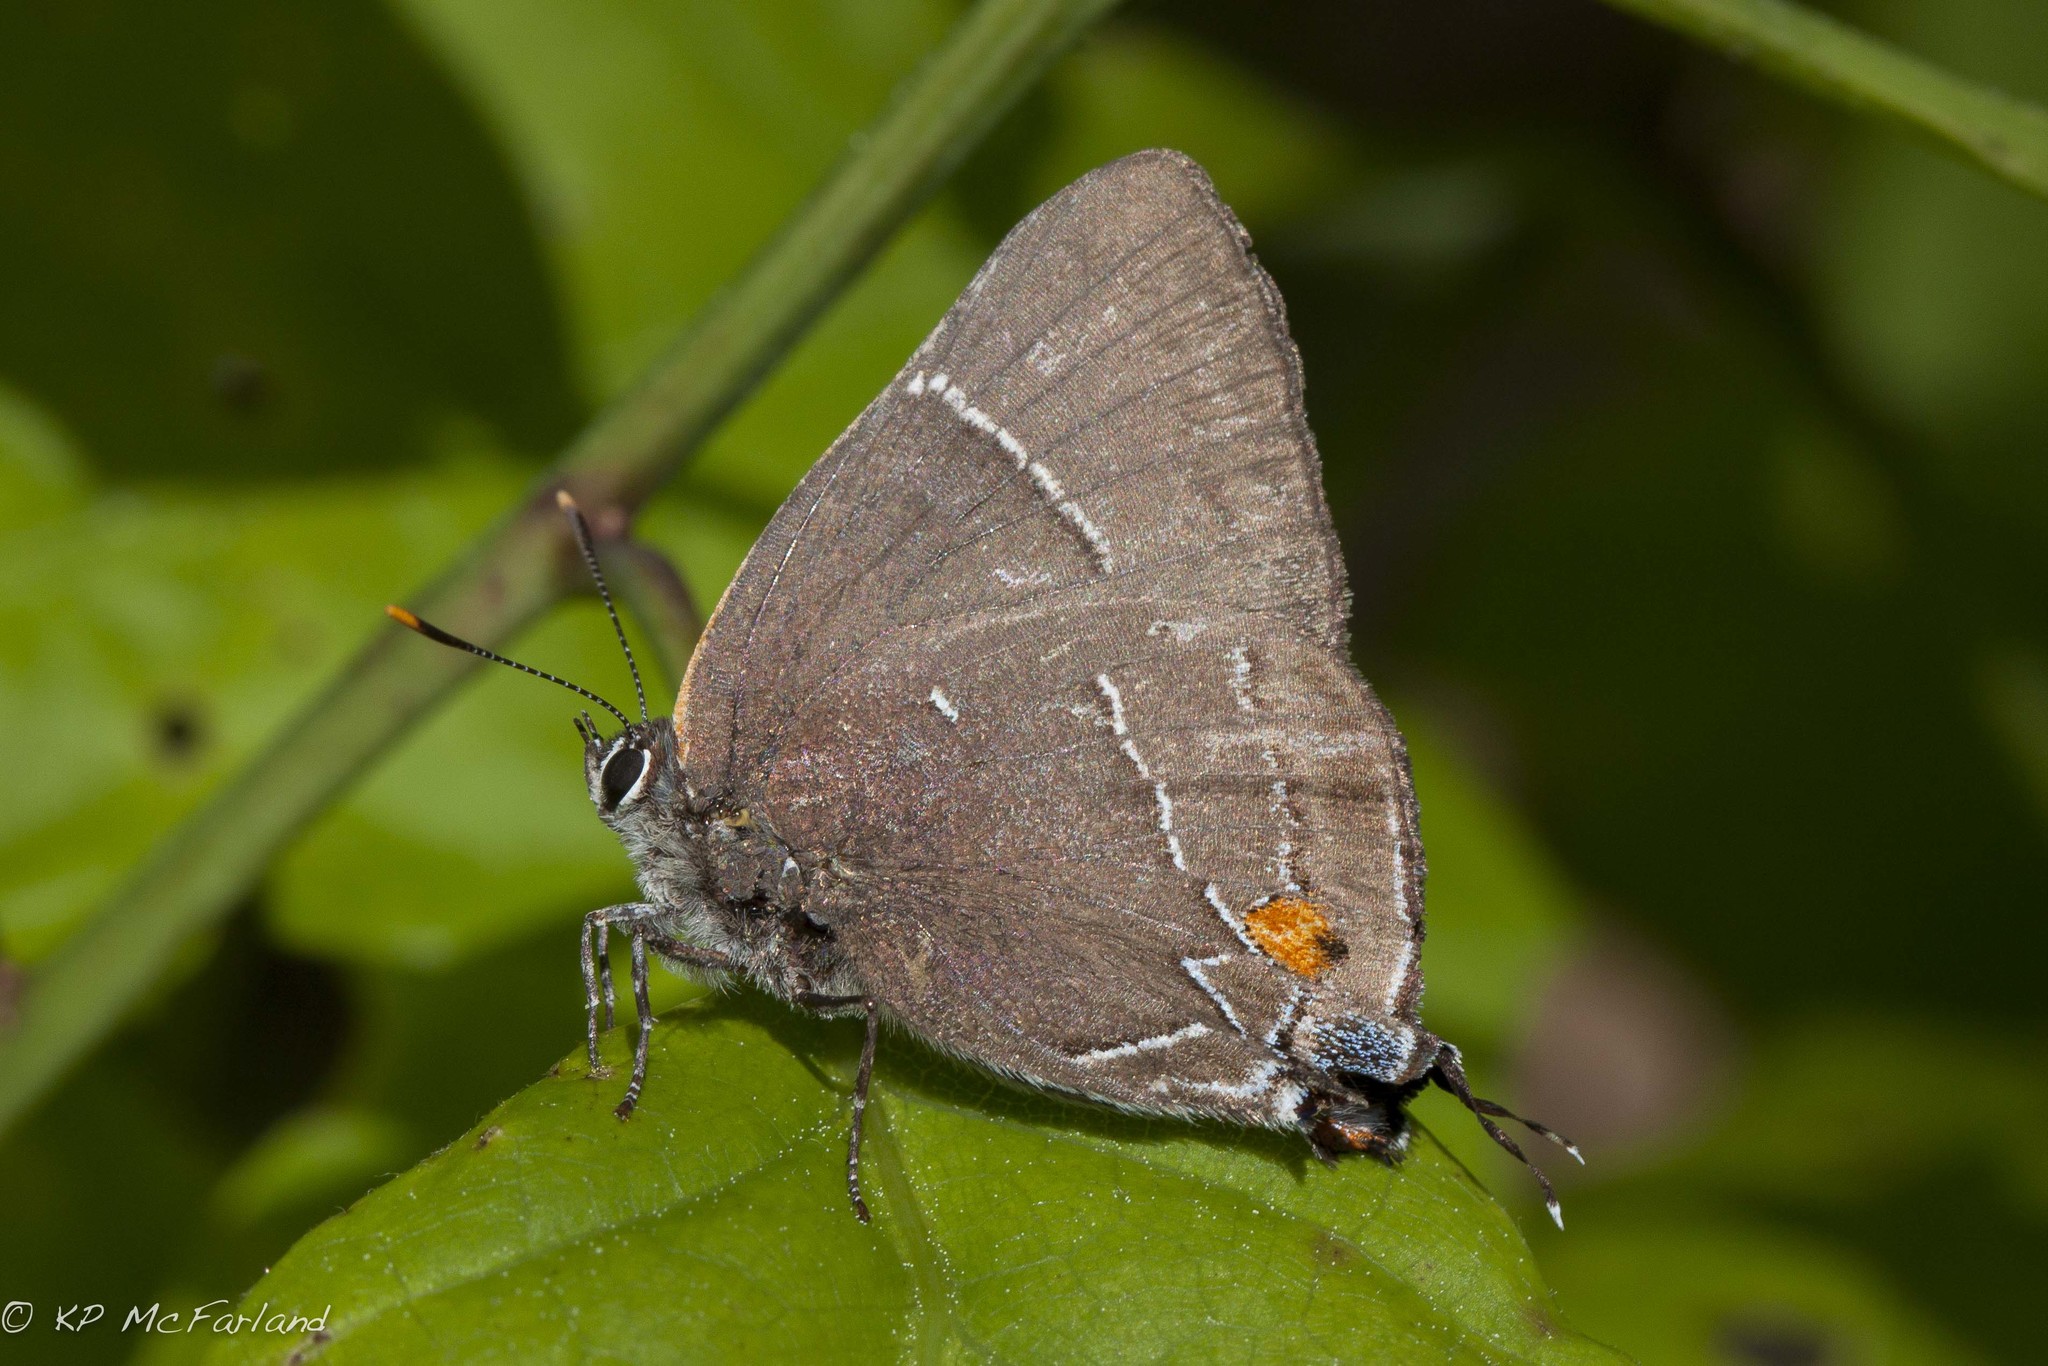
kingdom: Animalia
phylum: Arthropoda
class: Insecta
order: Lepidoptera
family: Lycaenidae
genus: Parrhasius
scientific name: Parrhasius m-album
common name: White m hairstreak
